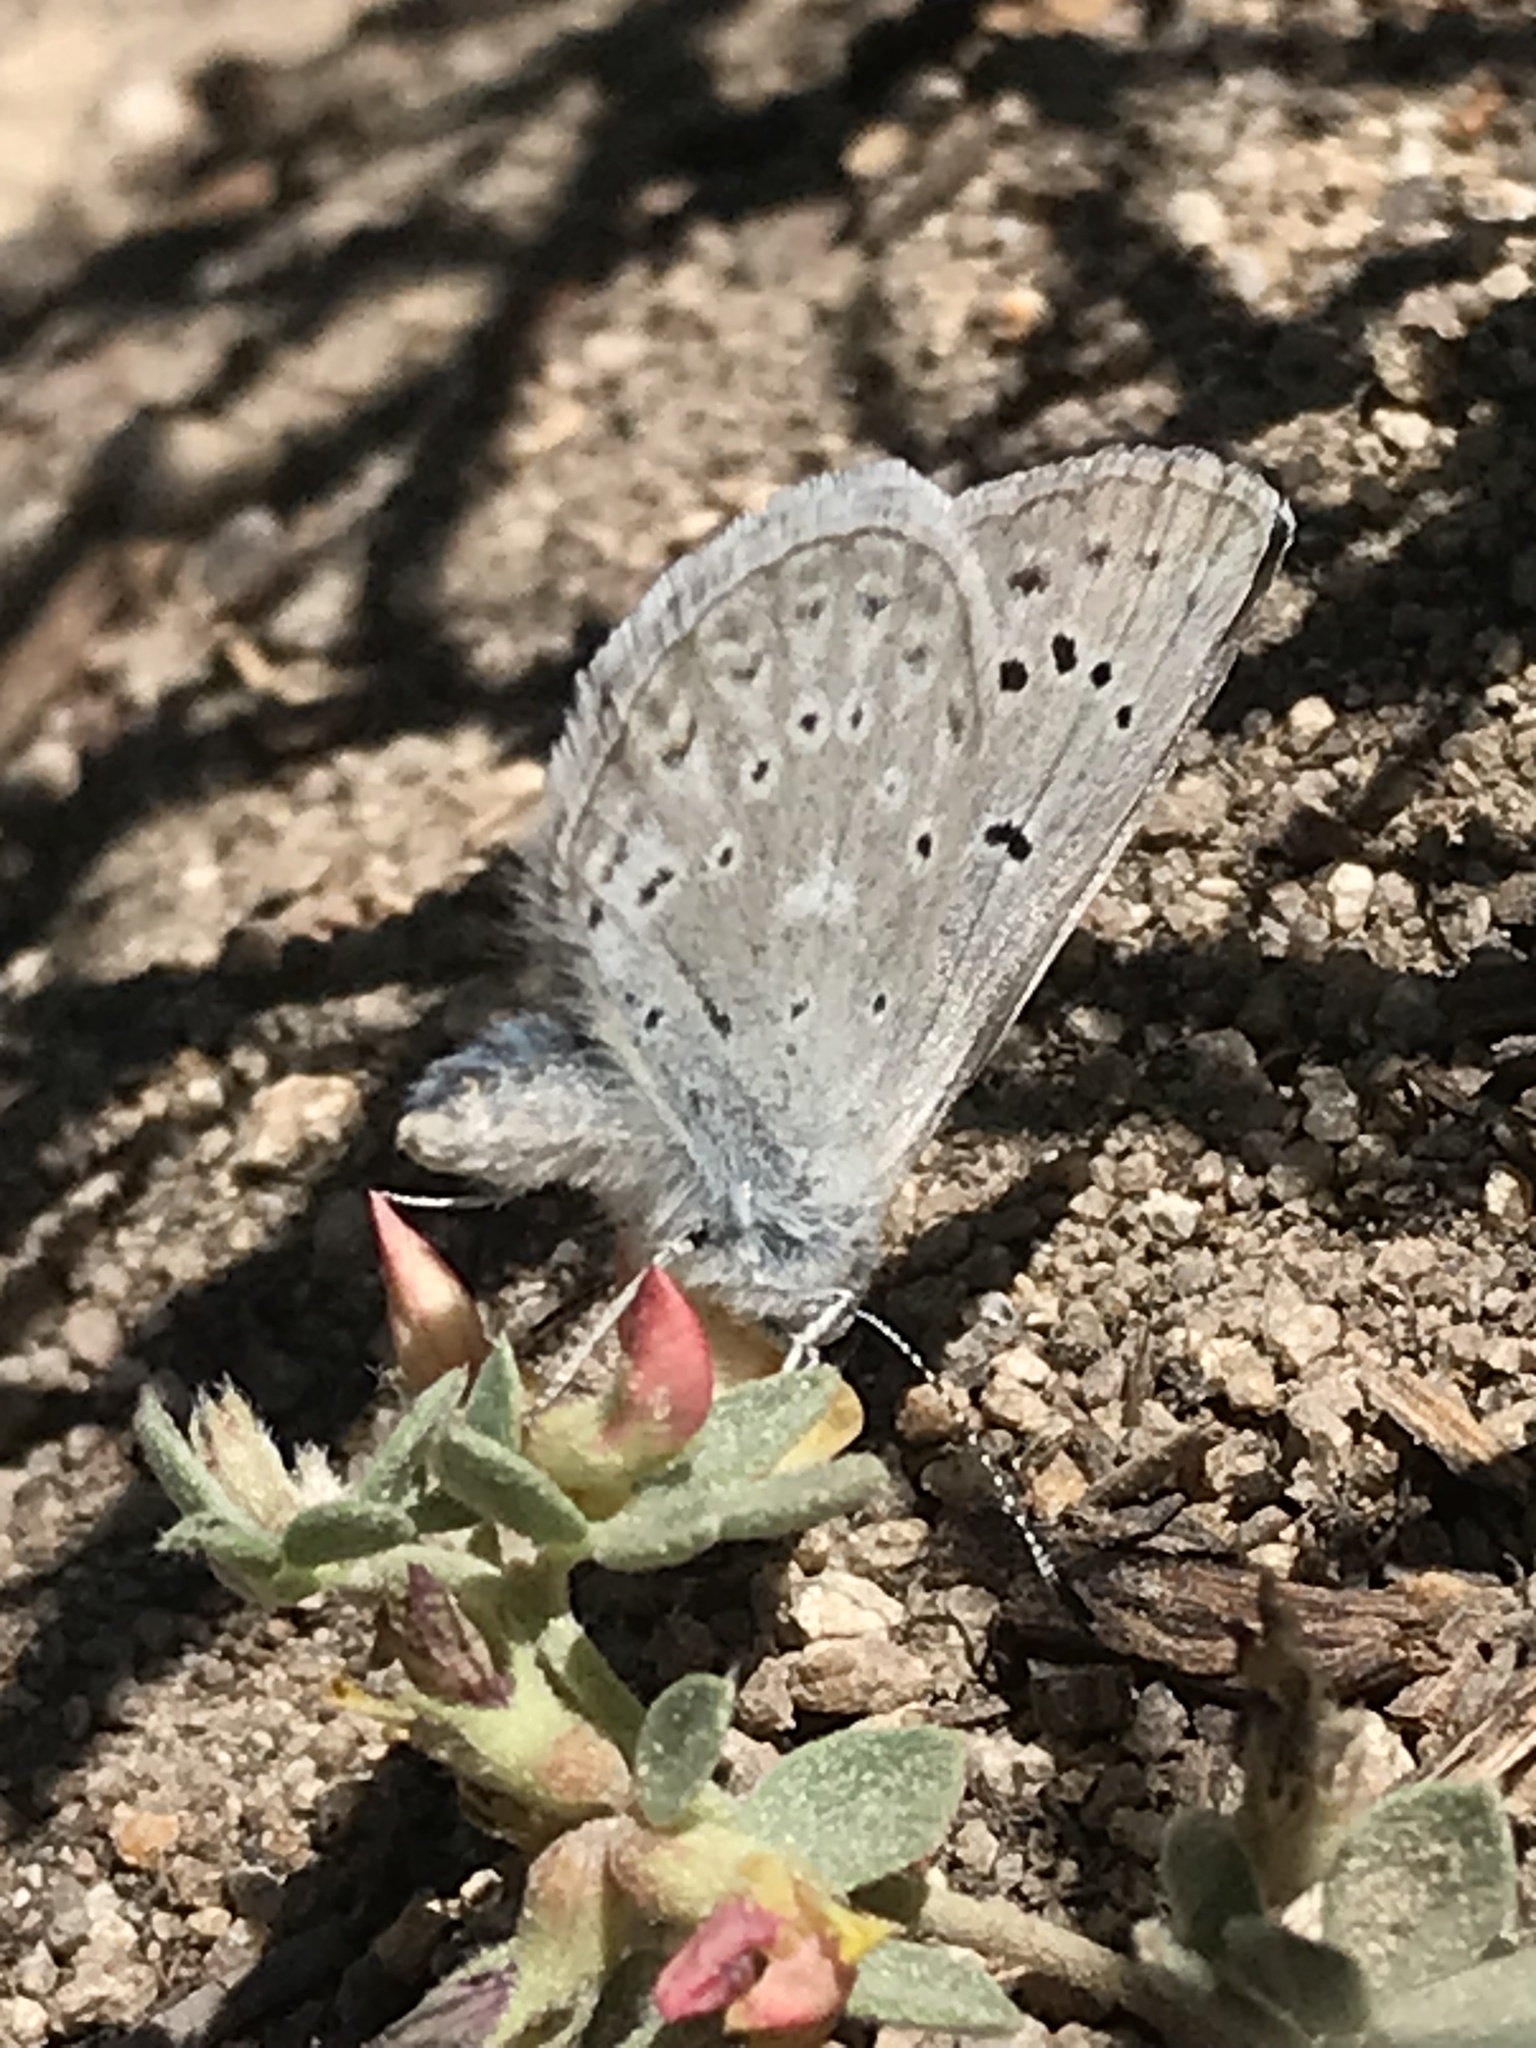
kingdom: Animalia
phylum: Arthropoda
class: Insecta
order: Lepidoptera
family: Lycaenidae
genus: Icaricia
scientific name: Icaricia icarioides
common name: Boisduval's blue
